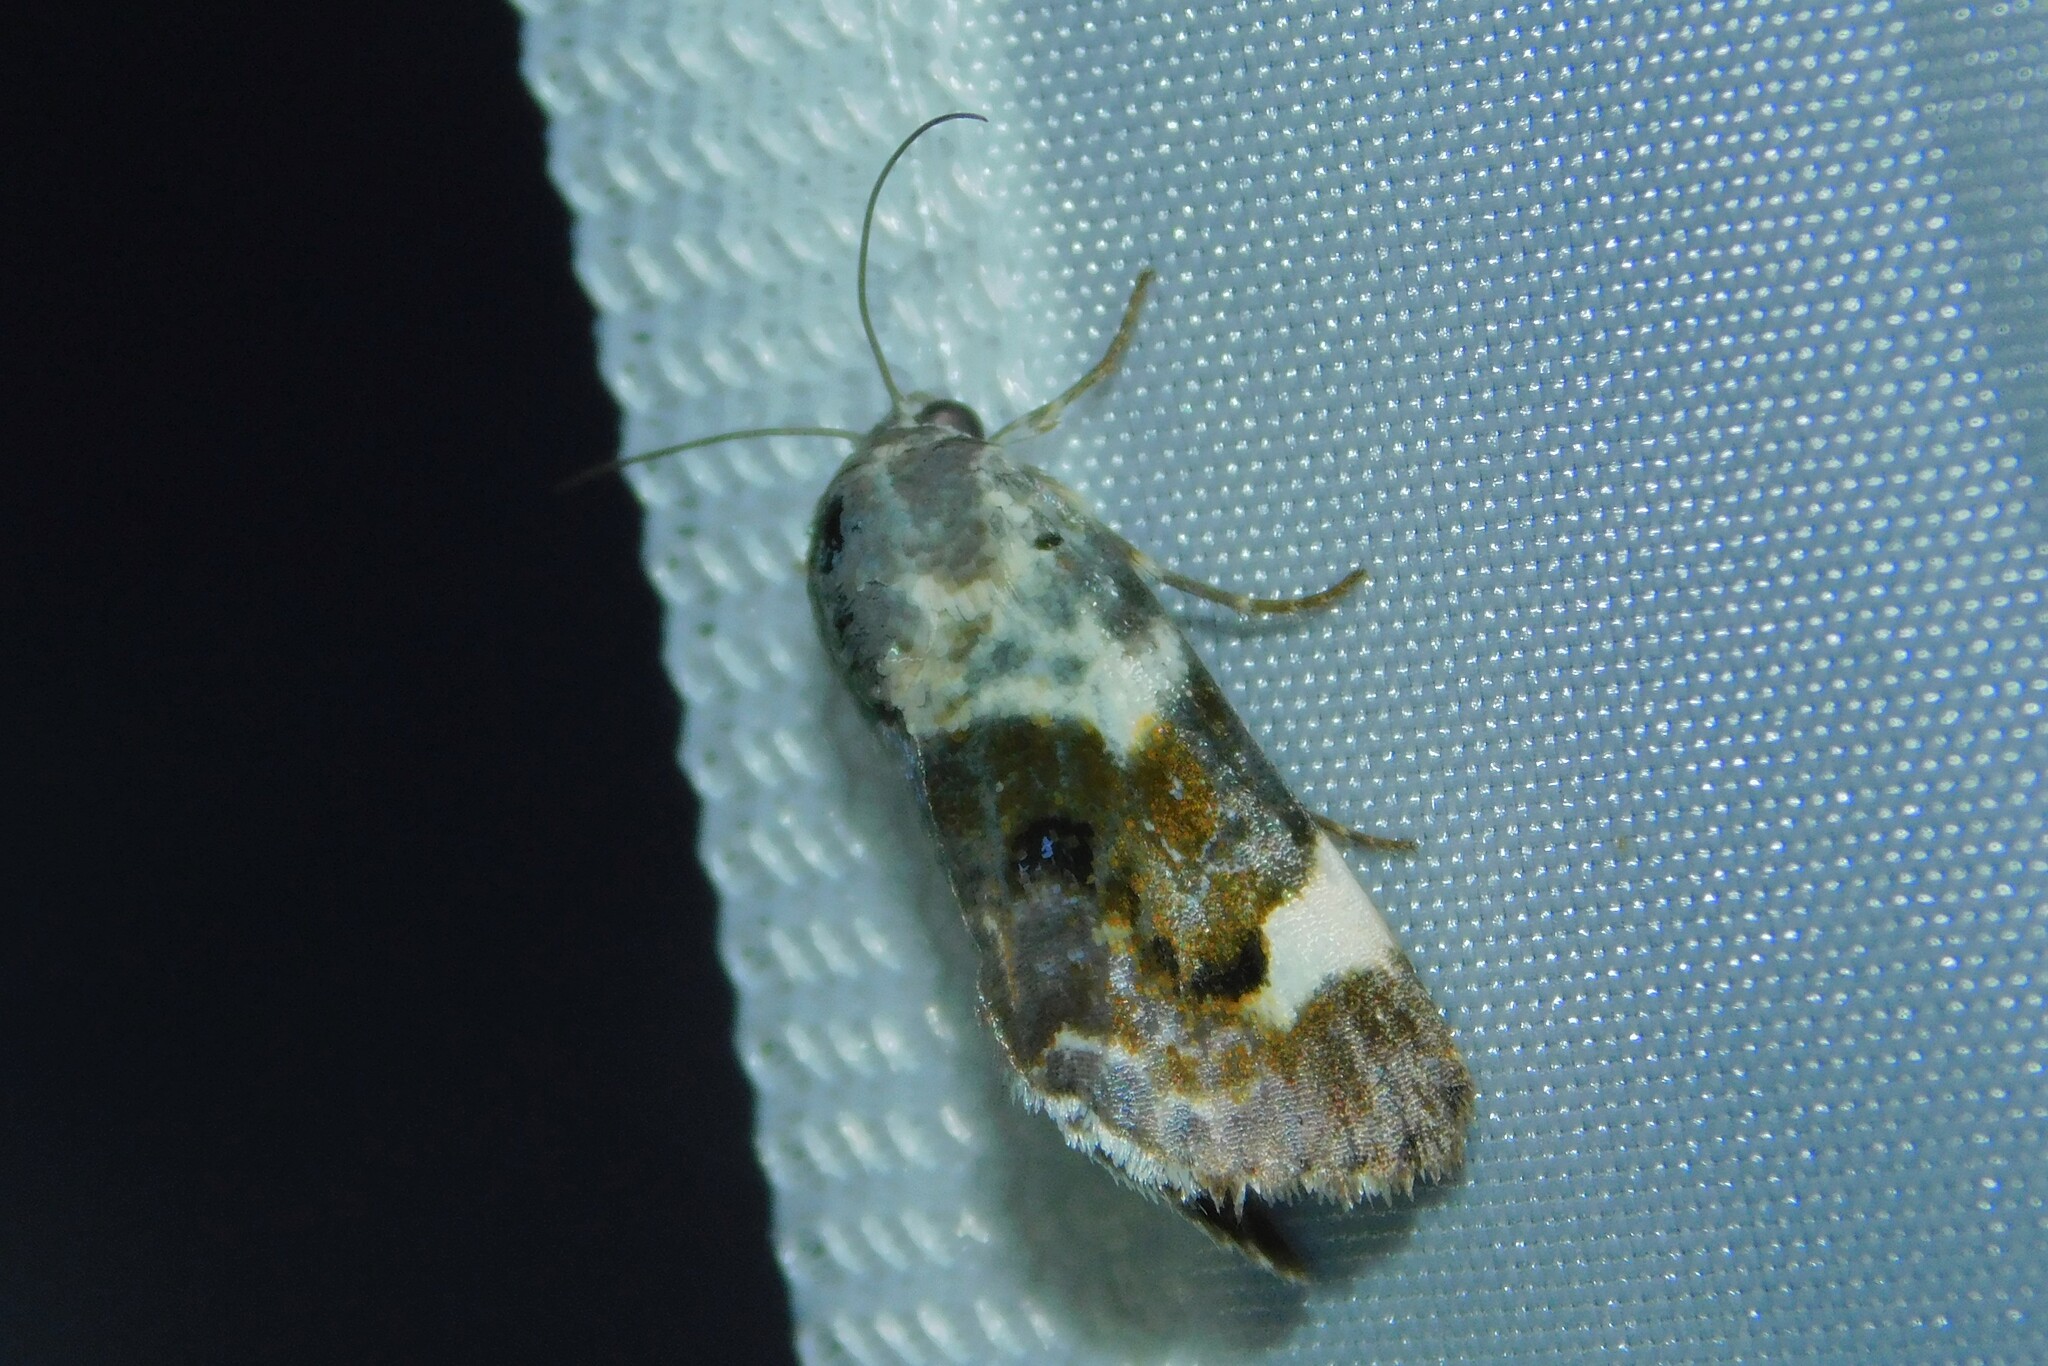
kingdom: Animalia
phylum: Arthropoda
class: Insecta
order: Lepidoptera
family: Noctuidae
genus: Acontia
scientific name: Acontia lucida
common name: Pale shoulder
